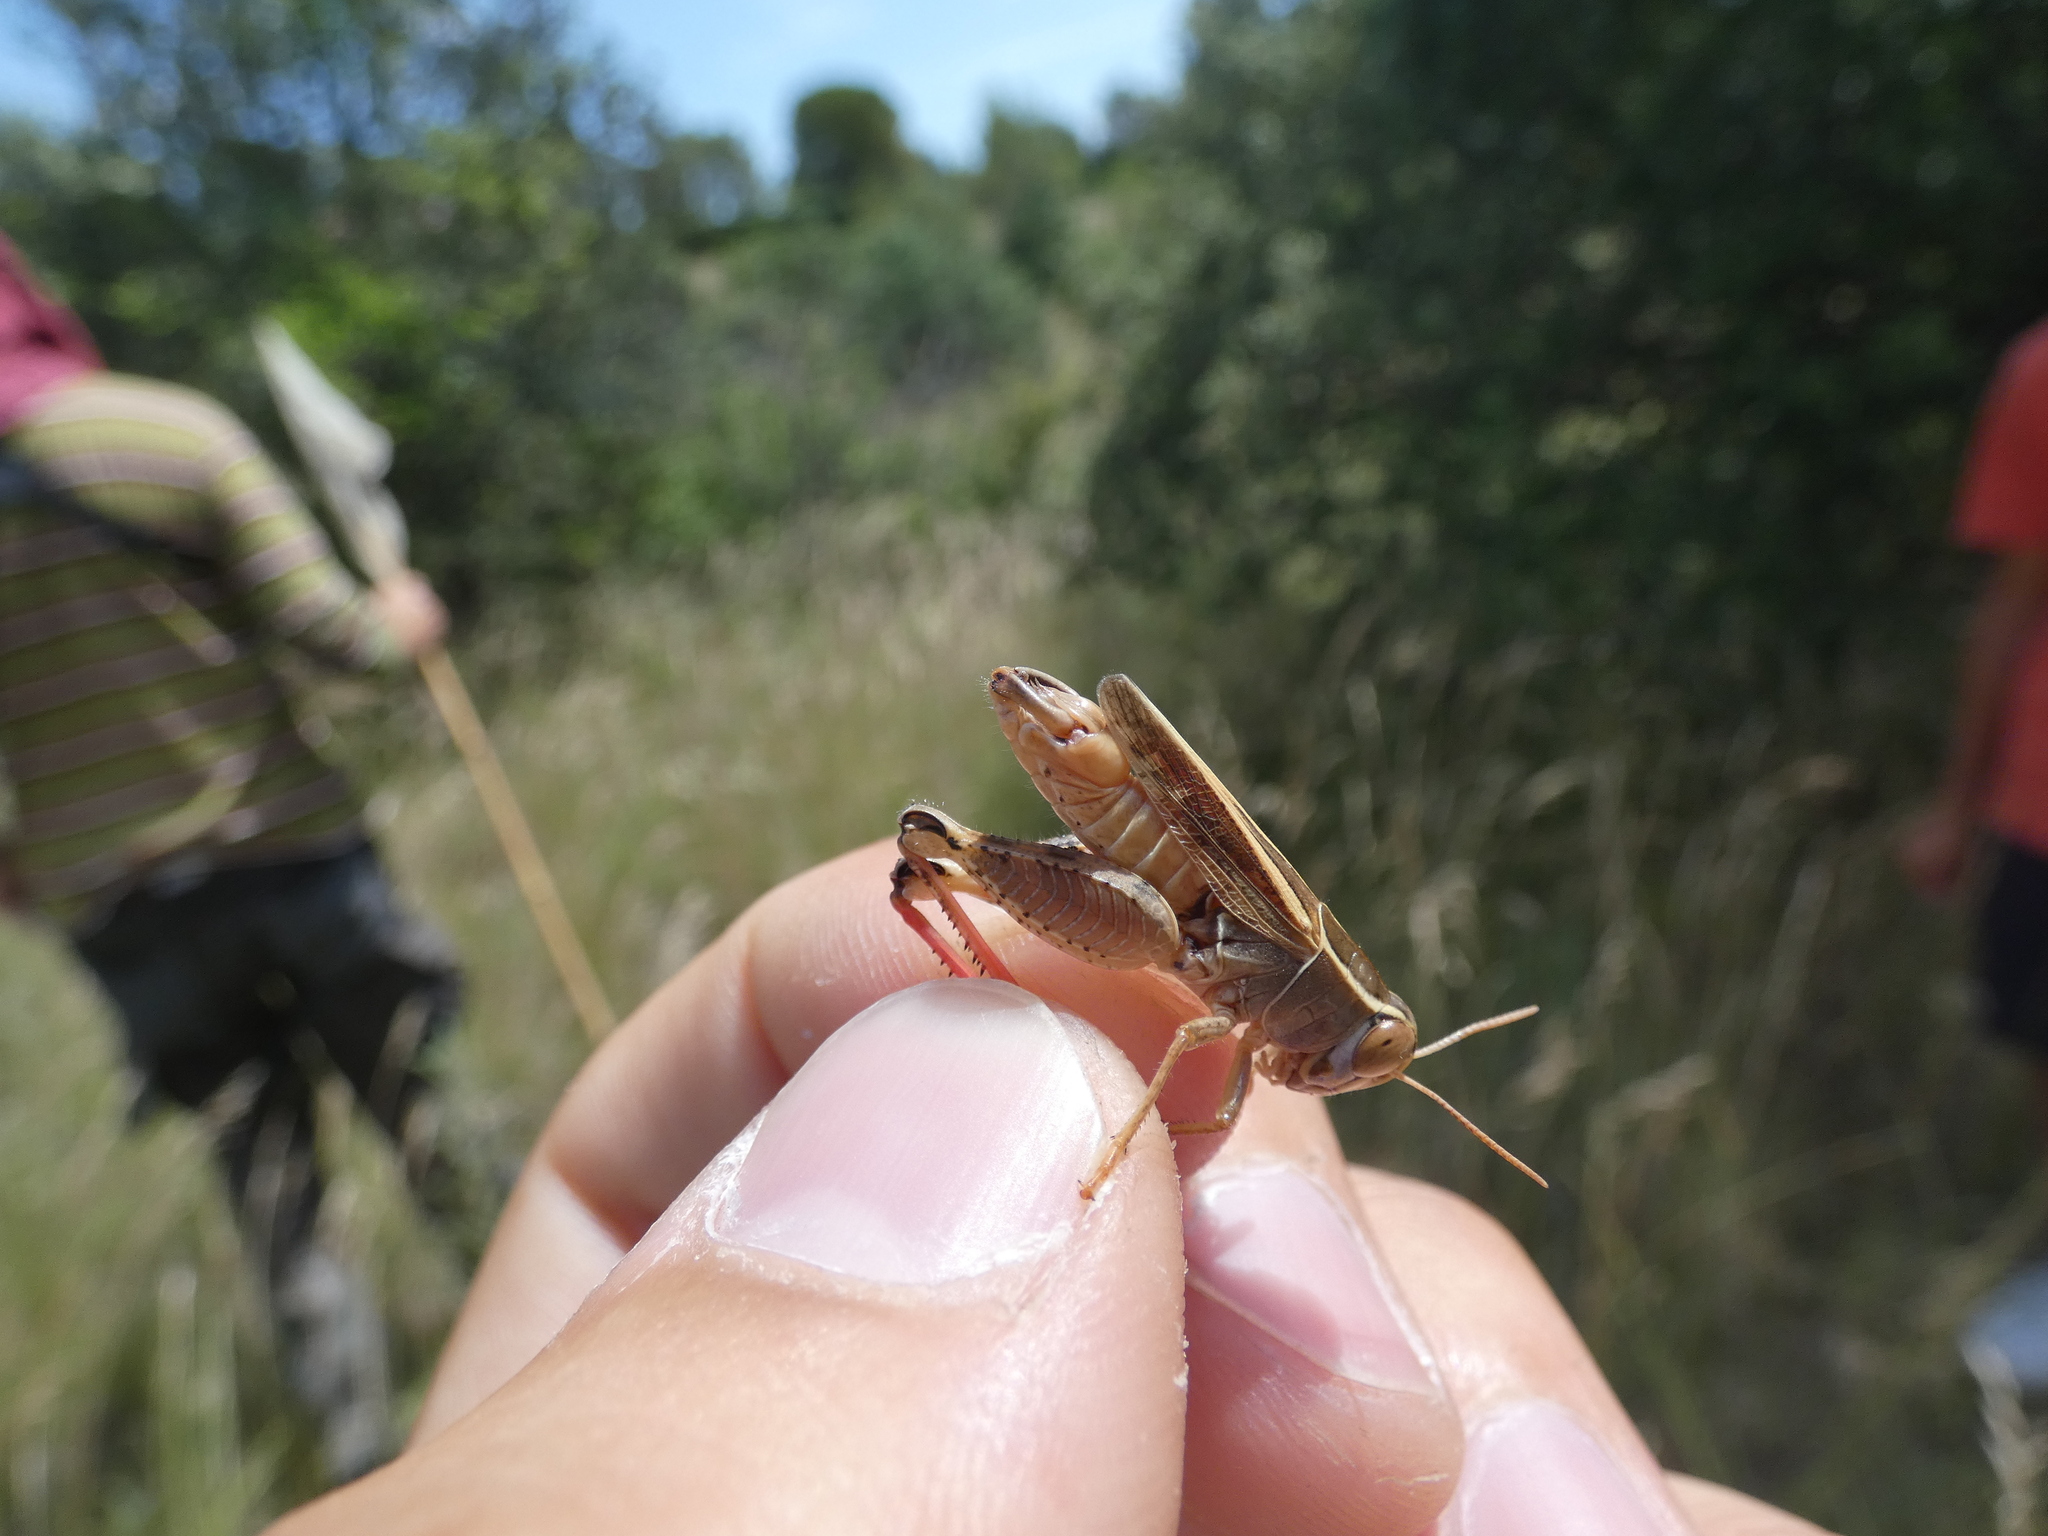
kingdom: Animalia
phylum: Arthropoda
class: Insecta
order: Orthoptera
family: Acrididae
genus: Calliptamus
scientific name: Calliptamus wattenwylianus
